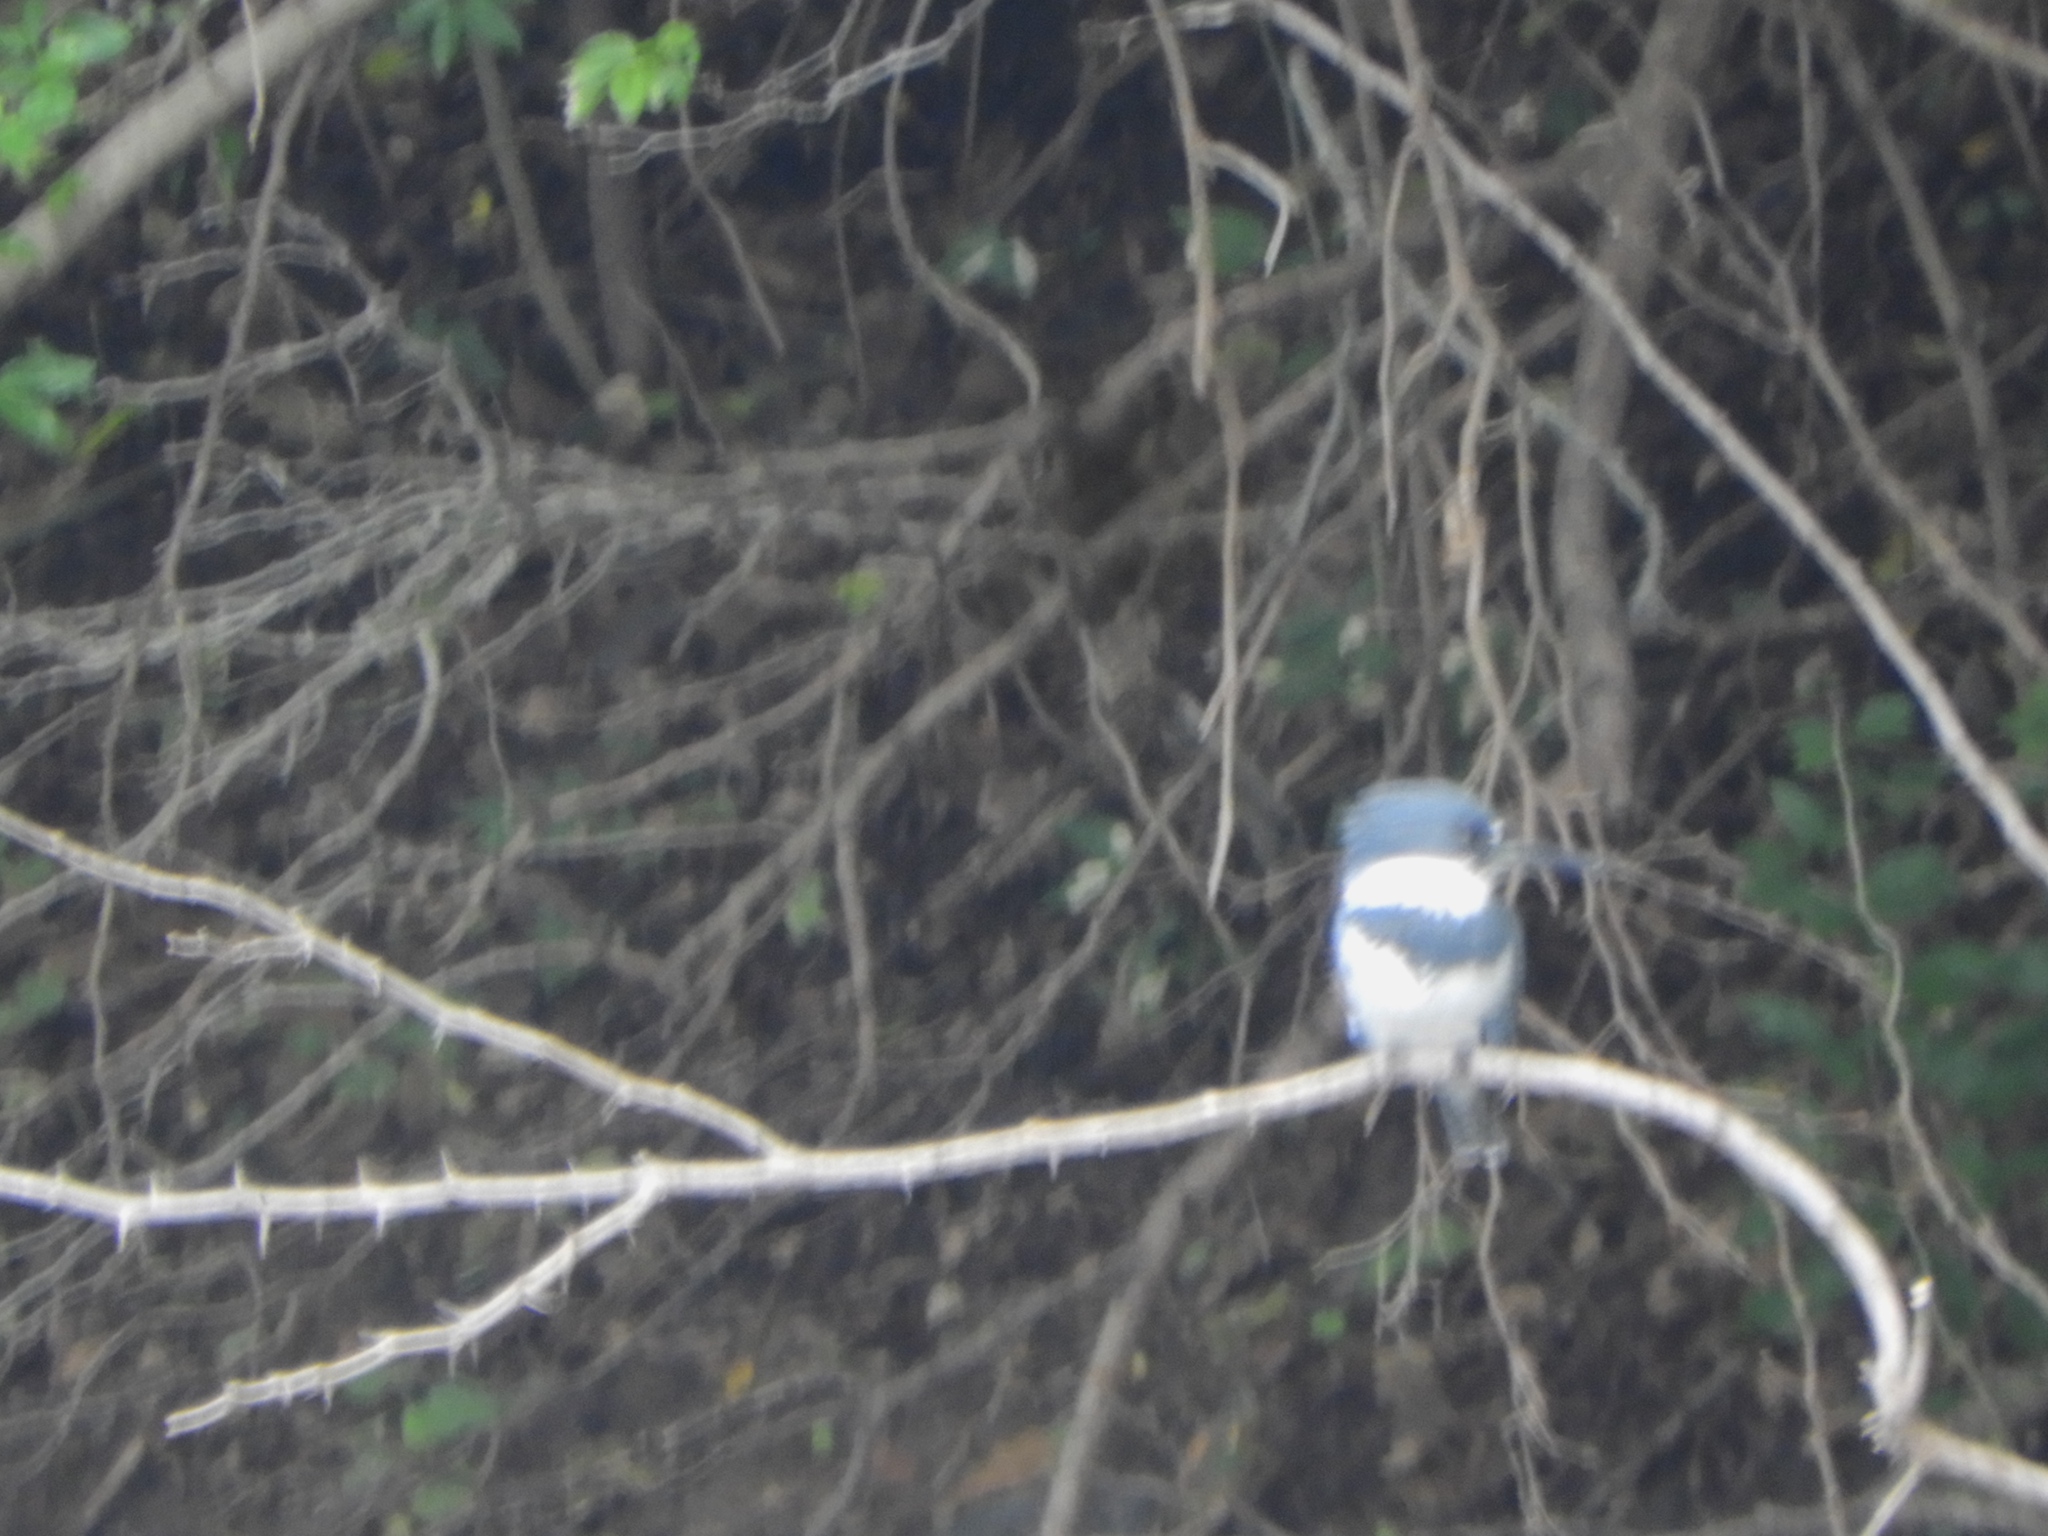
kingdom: Animalia
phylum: Chordata
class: Aves
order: Coraciiformes
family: Alcedinidae
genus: Megaceryle
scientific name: Megaceryle alcyon
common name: Belted kingfisher
